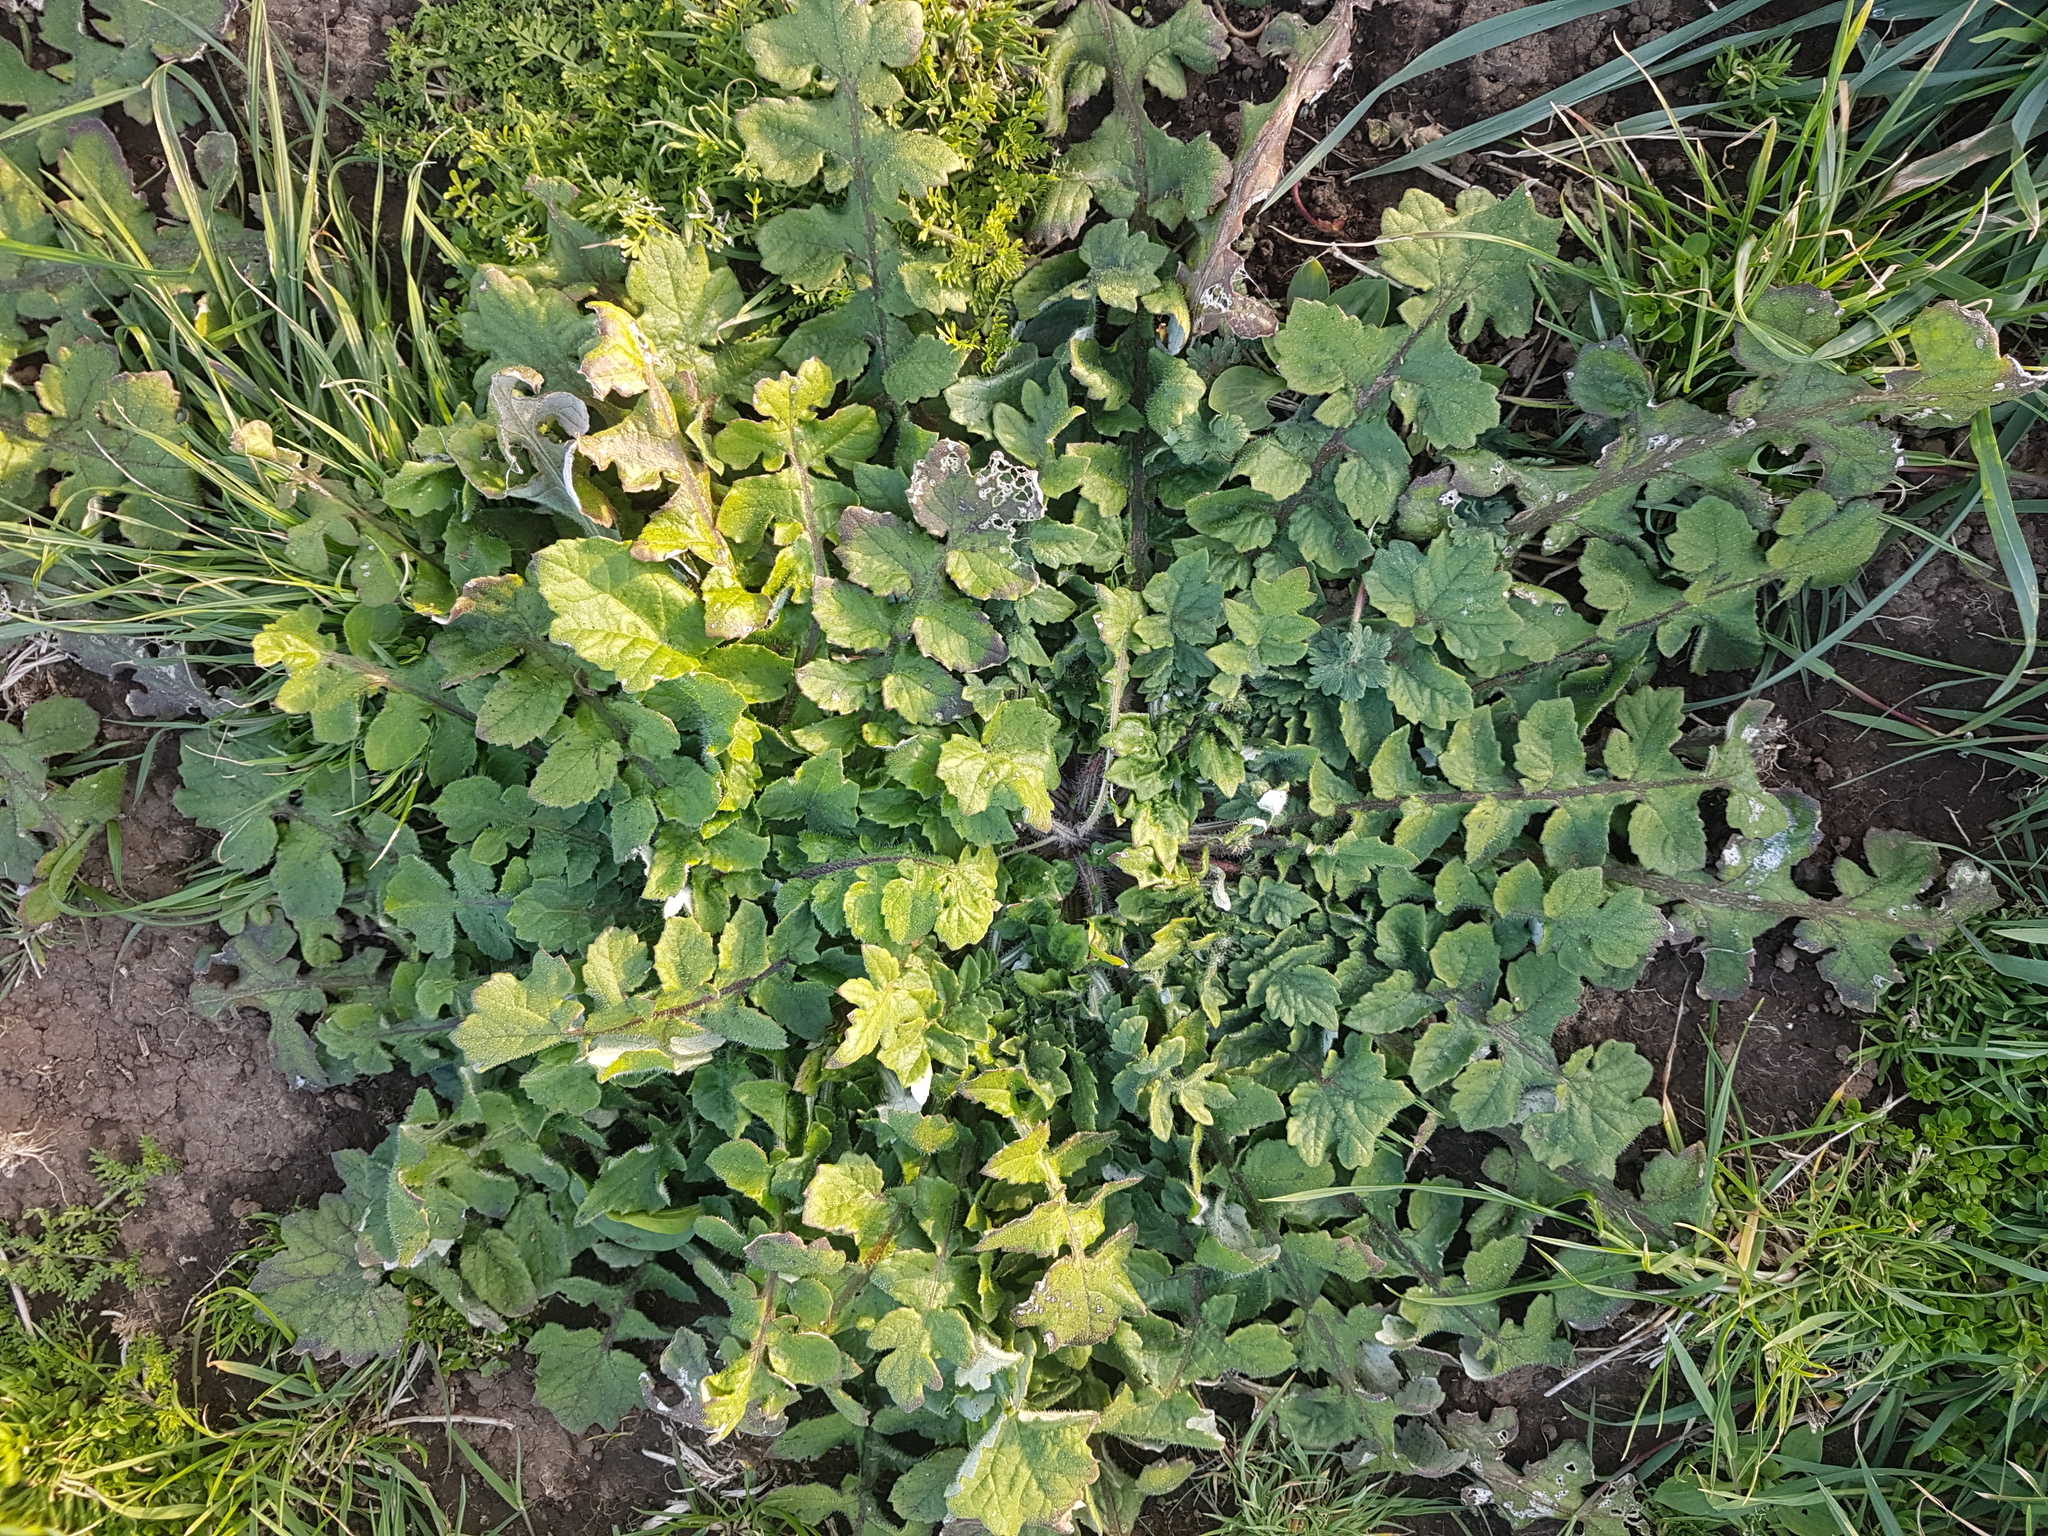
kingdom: Plantae
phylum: Tracheophyta
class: Magnoliopsida
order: Asterales
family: Asteraceae
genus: Arctotheca
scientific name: Arctotheca calendula
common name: Capeweed
